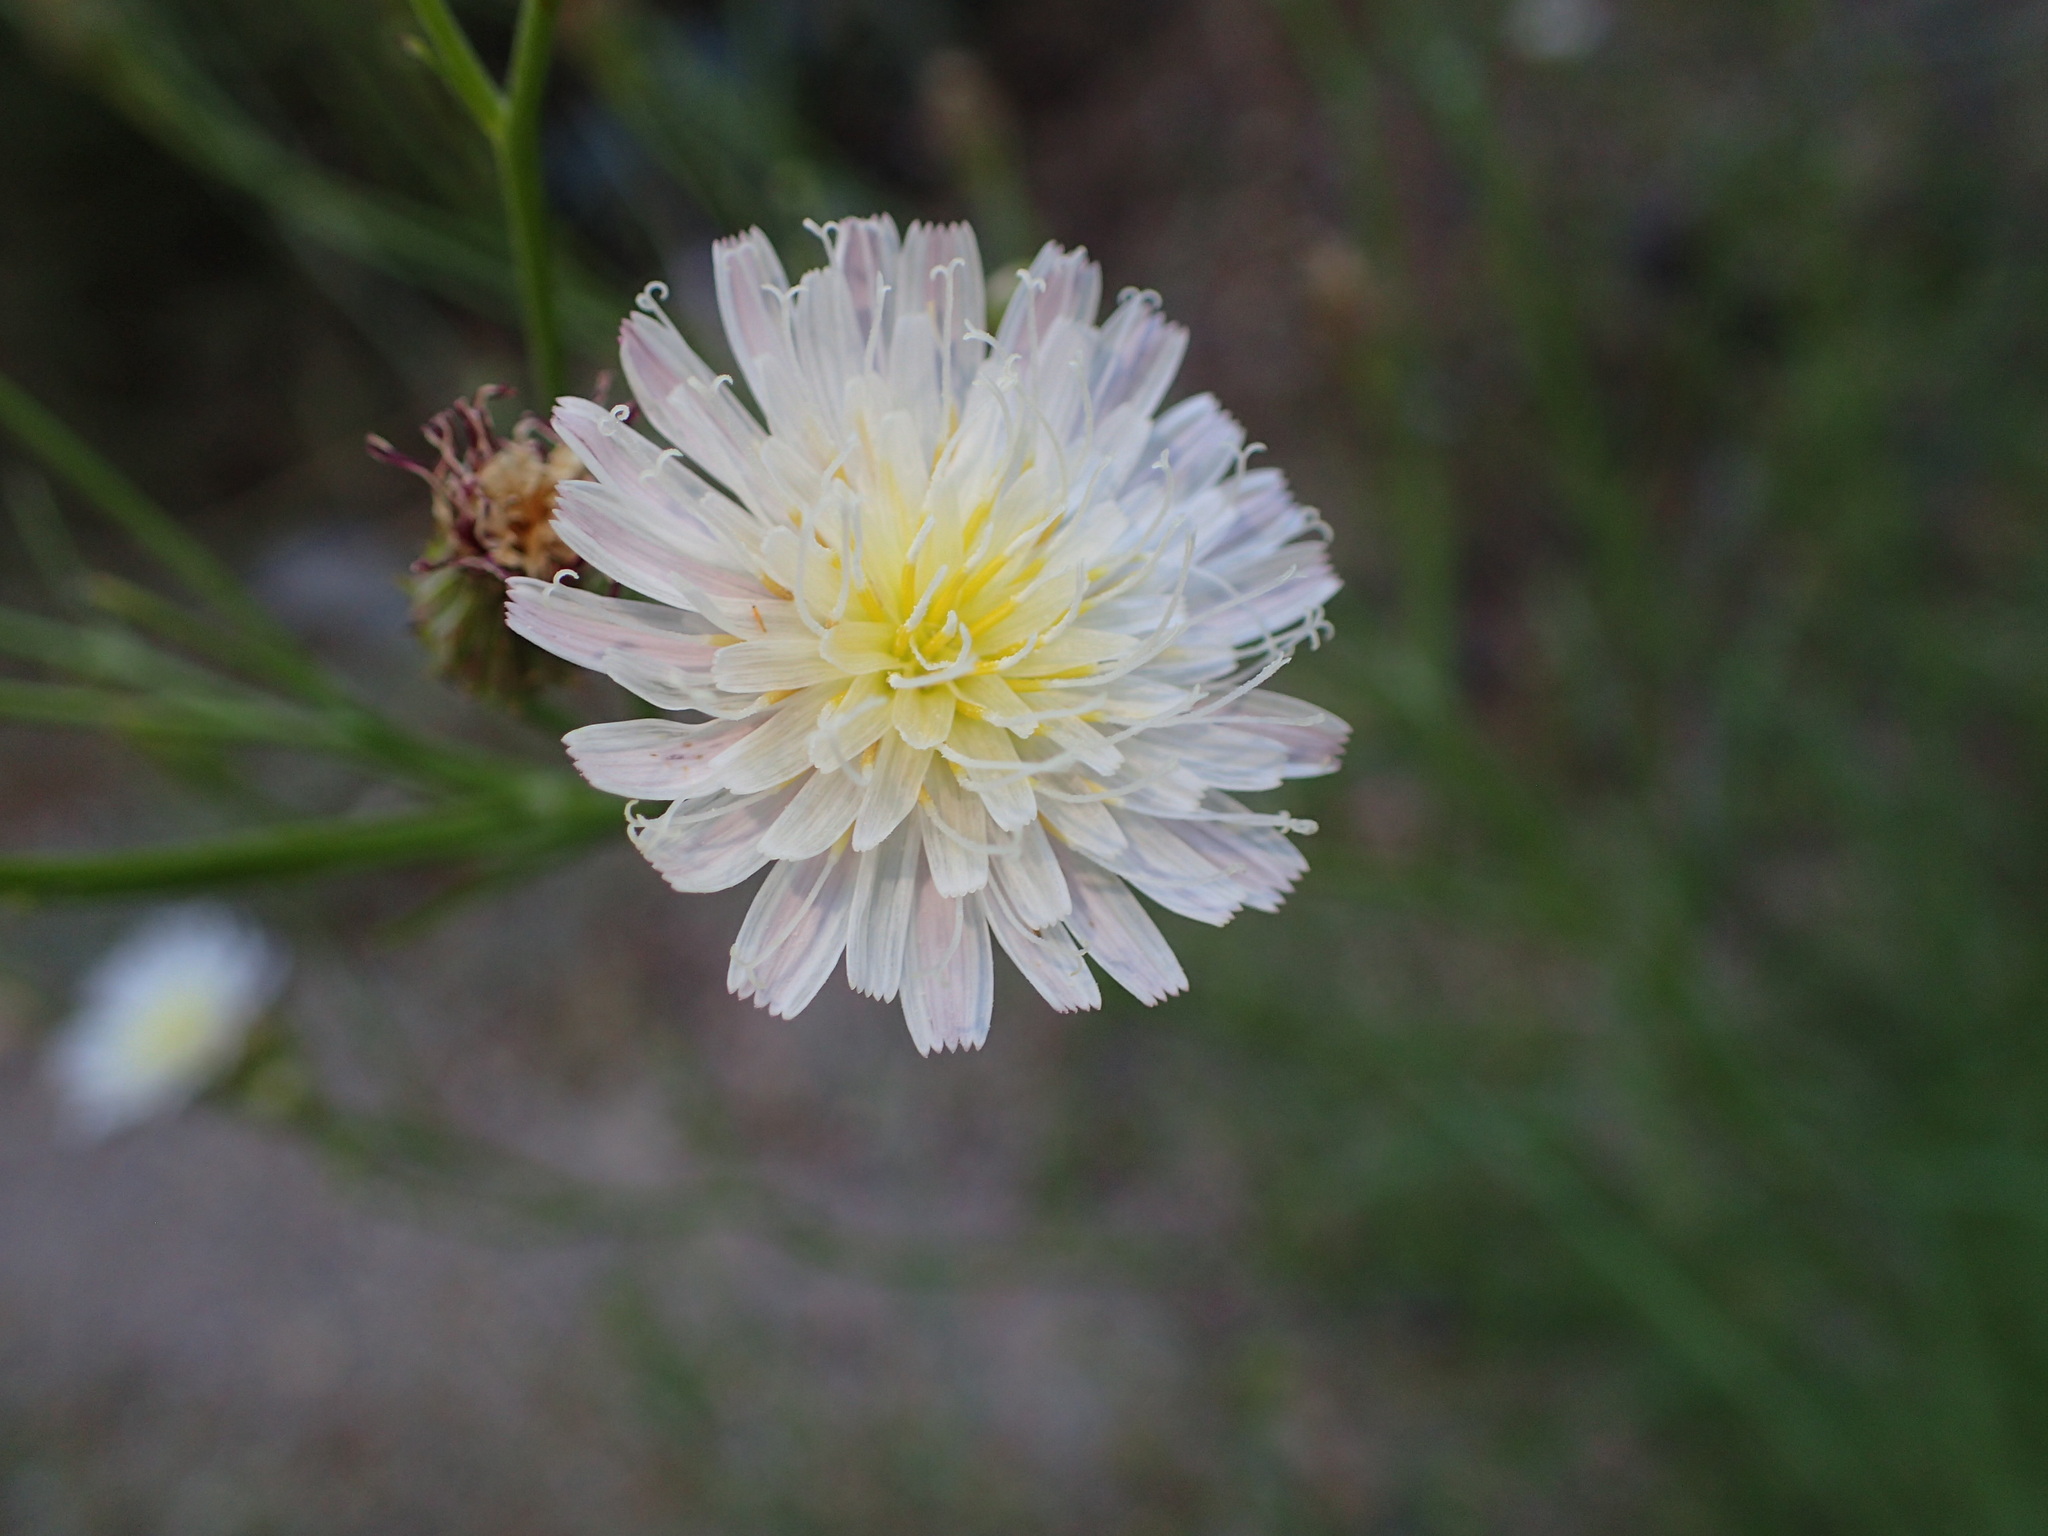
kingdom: Plantae
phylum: Tracheophyta
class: Magnoliopsida
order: Asterales
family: Asteraceae
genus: Malacothrix
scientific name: Malacothrix saxatilis
